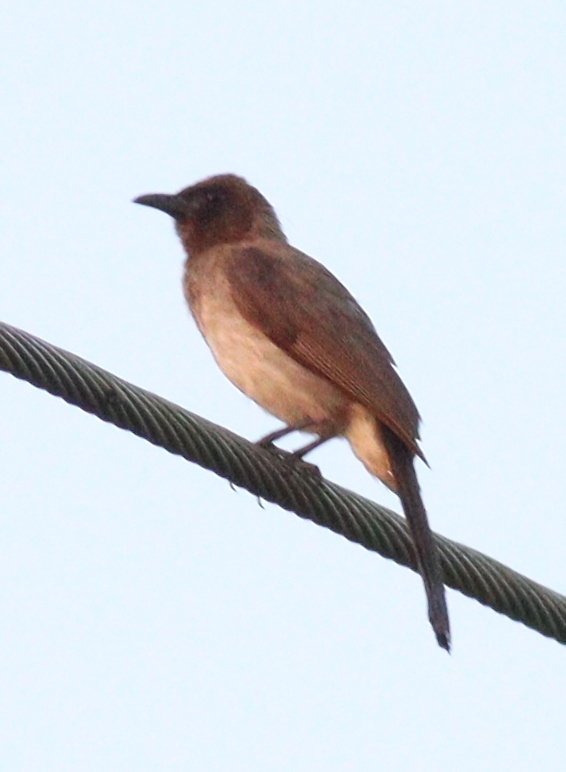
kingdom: Animalia
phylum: Chordata
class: Aves
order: Passeriformes
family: Pycnonotidae
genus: Pycnonotus
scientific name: Pycnonotus barbatus
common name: Common bulbul
